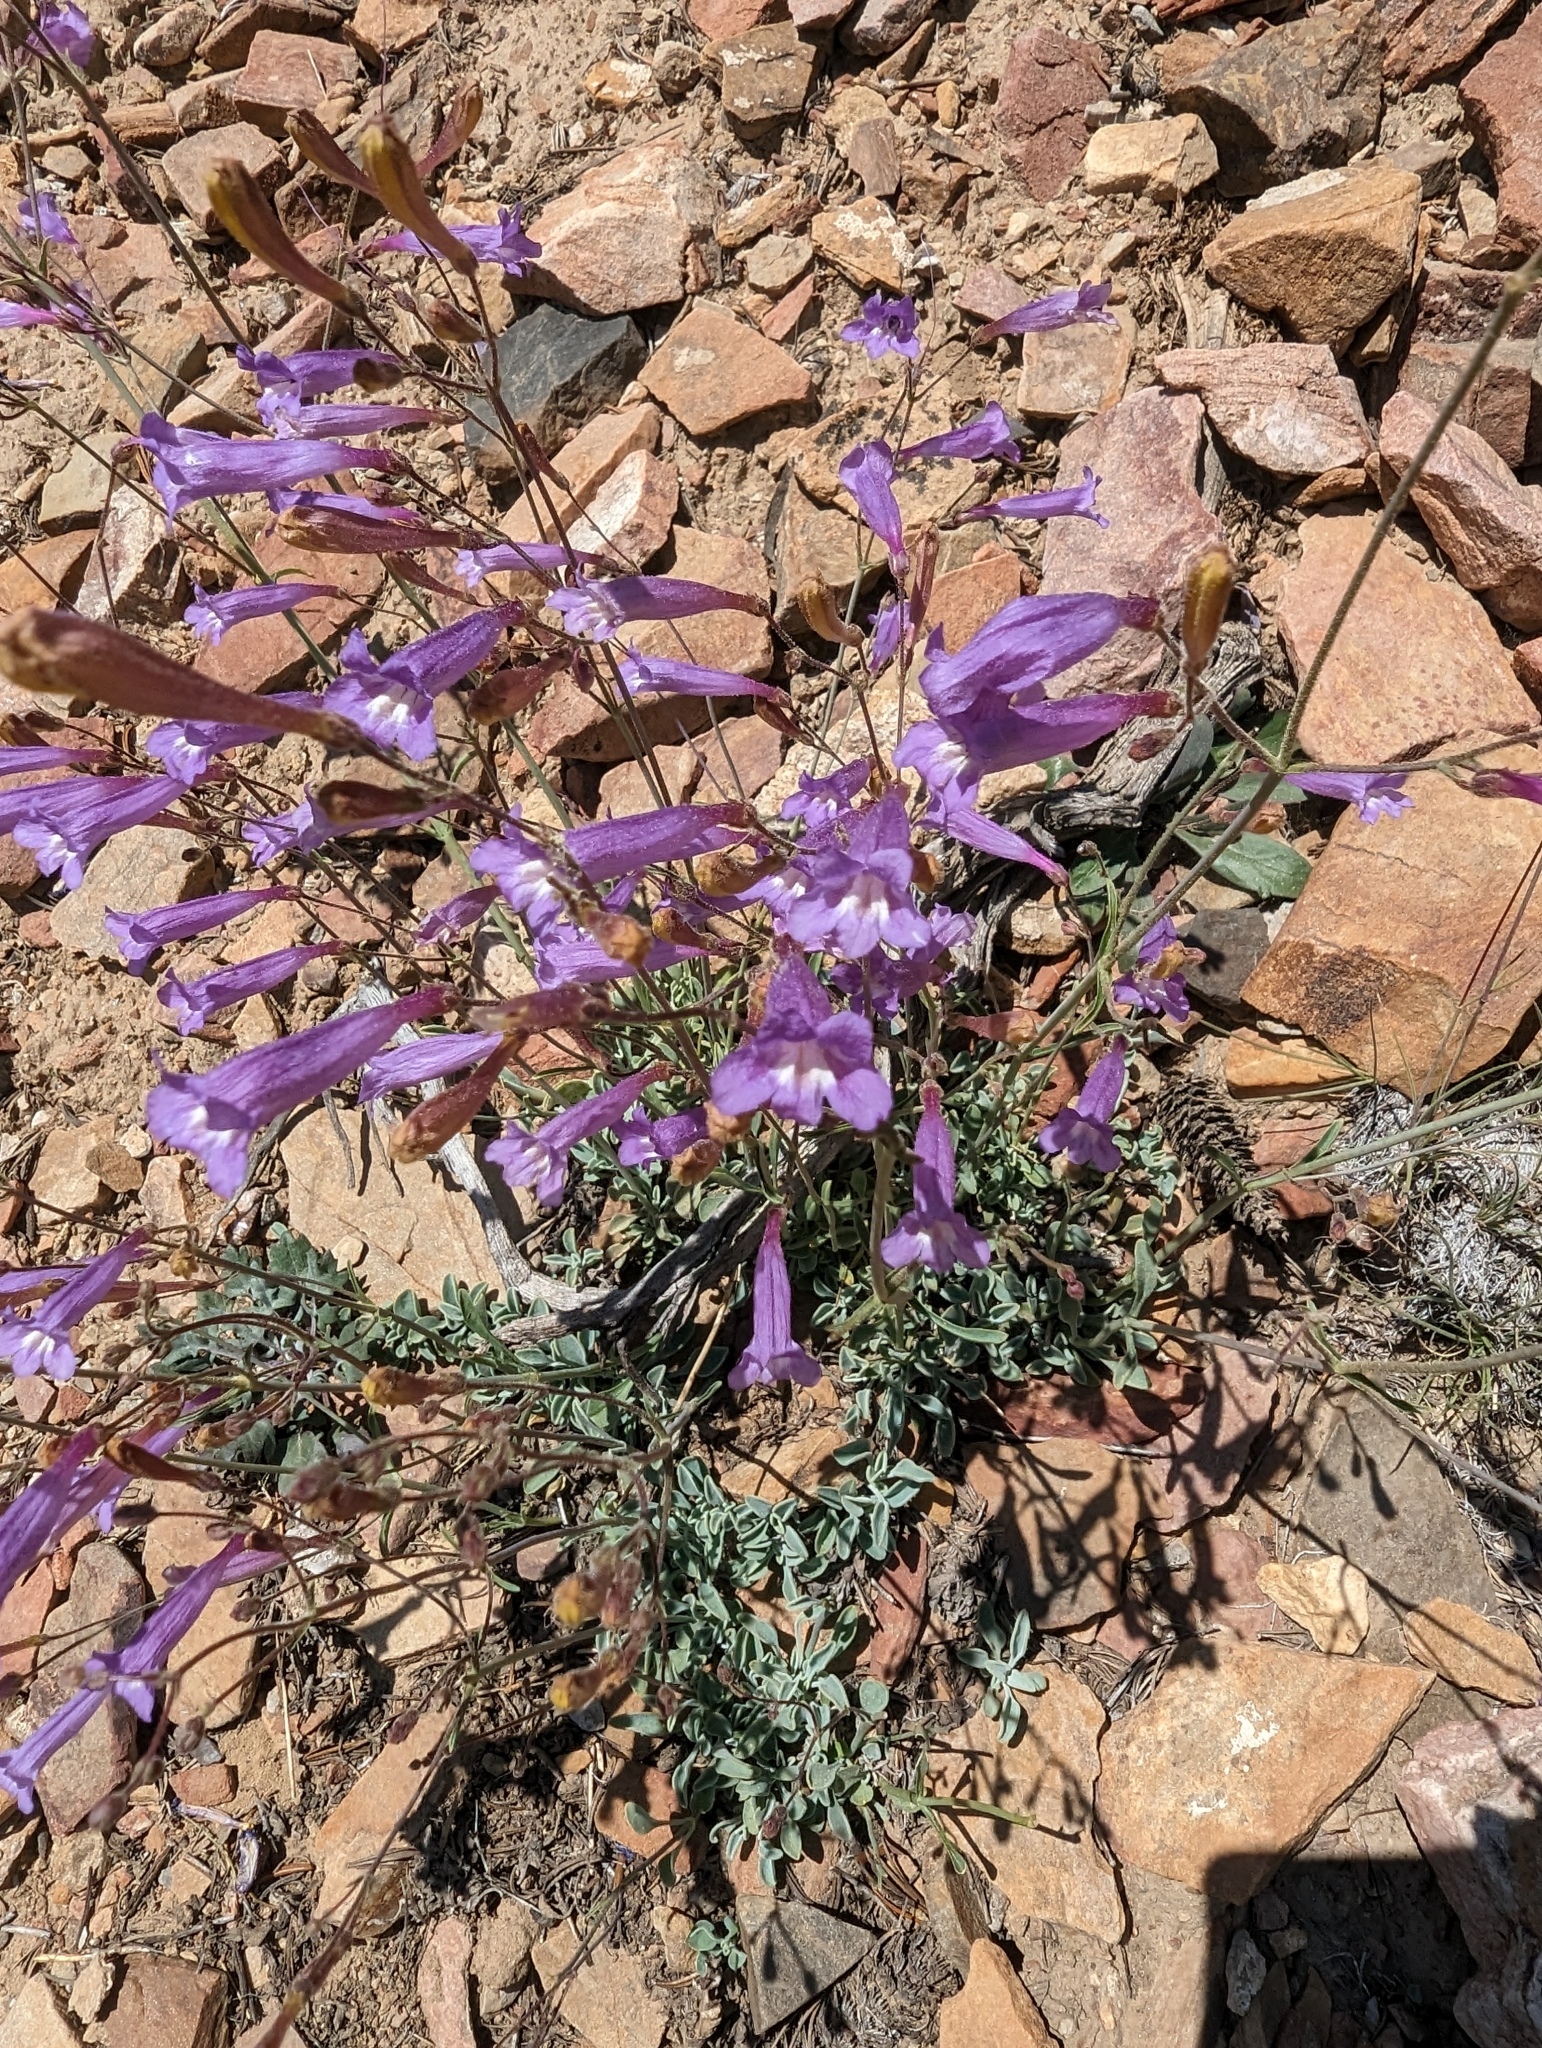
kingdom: Plantae
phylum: Tracheophyta
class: Magnoliopsida
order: Lamiales
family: Plantaginaceae
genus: Penstemon
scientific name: Penstemon scapoides
